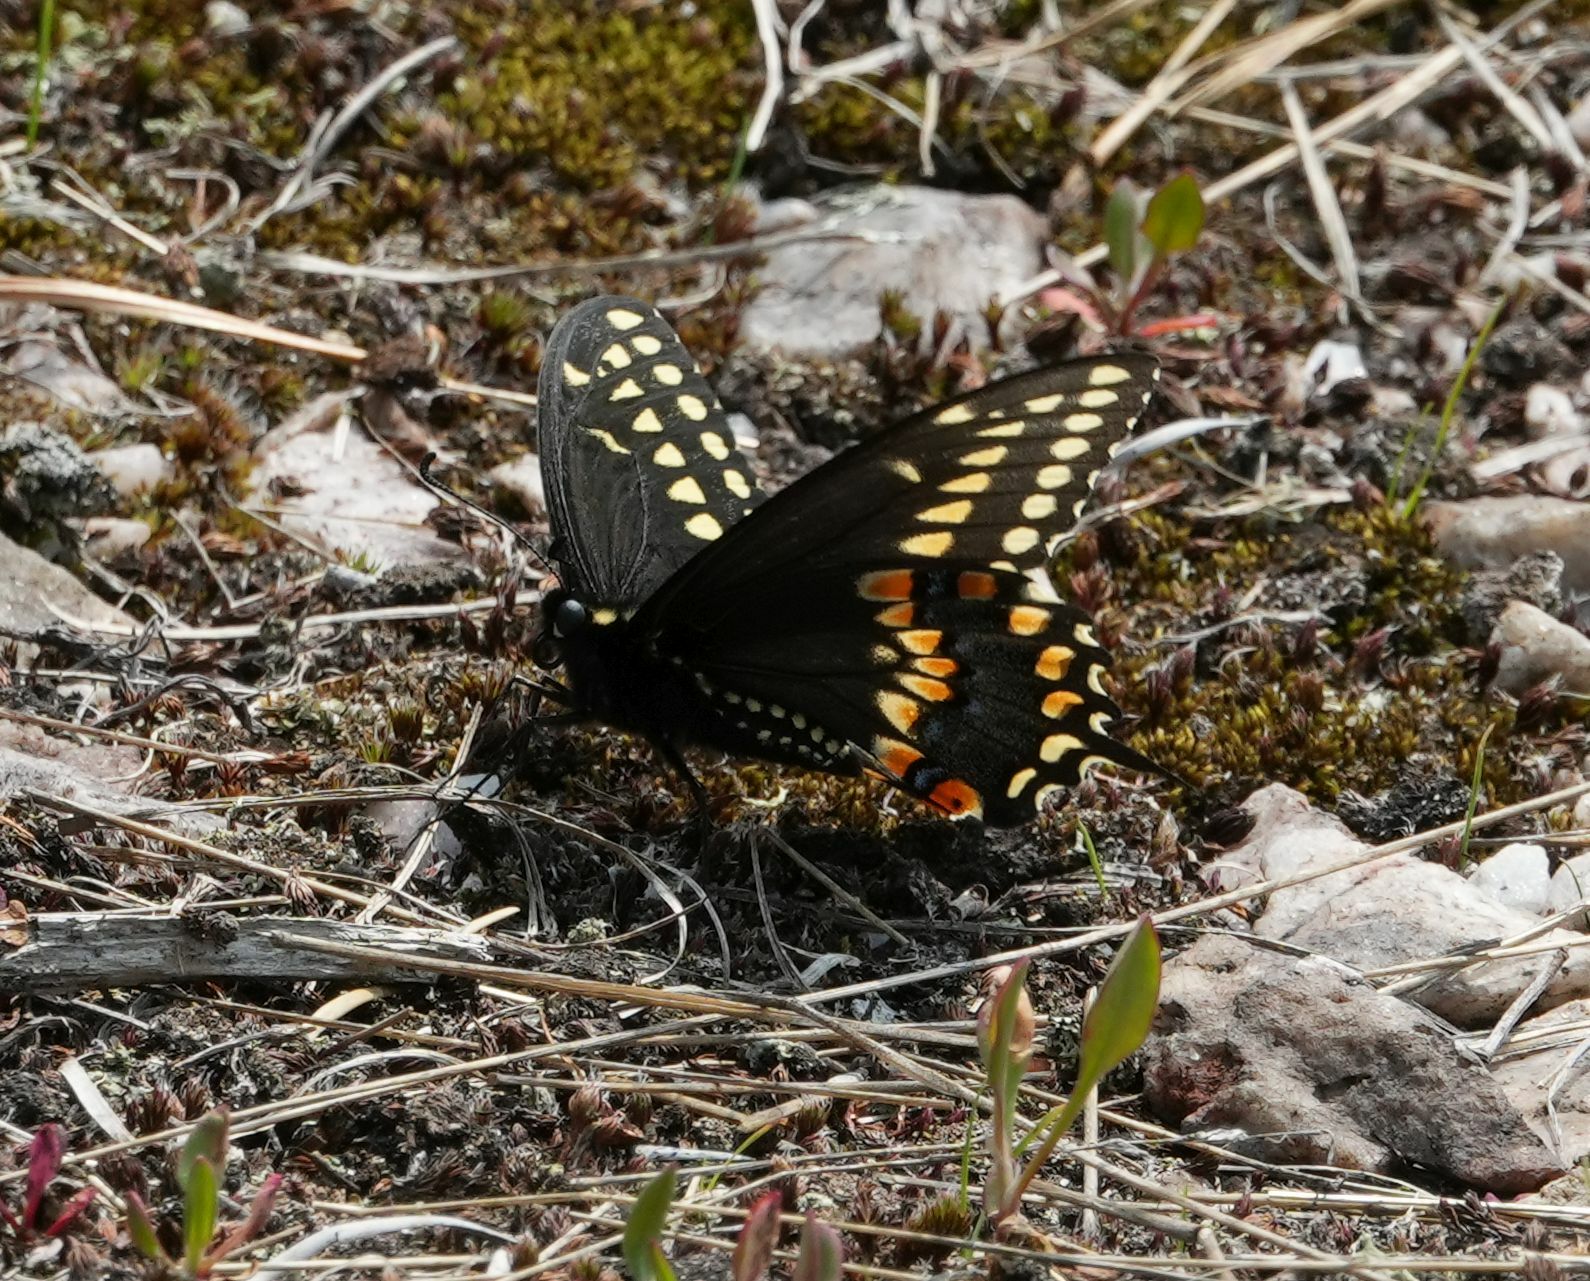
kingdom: Animalia
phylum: Arthropoda
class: Insecta
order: Lepidoptera
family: Papilionidae
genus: Papilio
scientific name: Papilio polyxenes
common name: Black swallowtail
